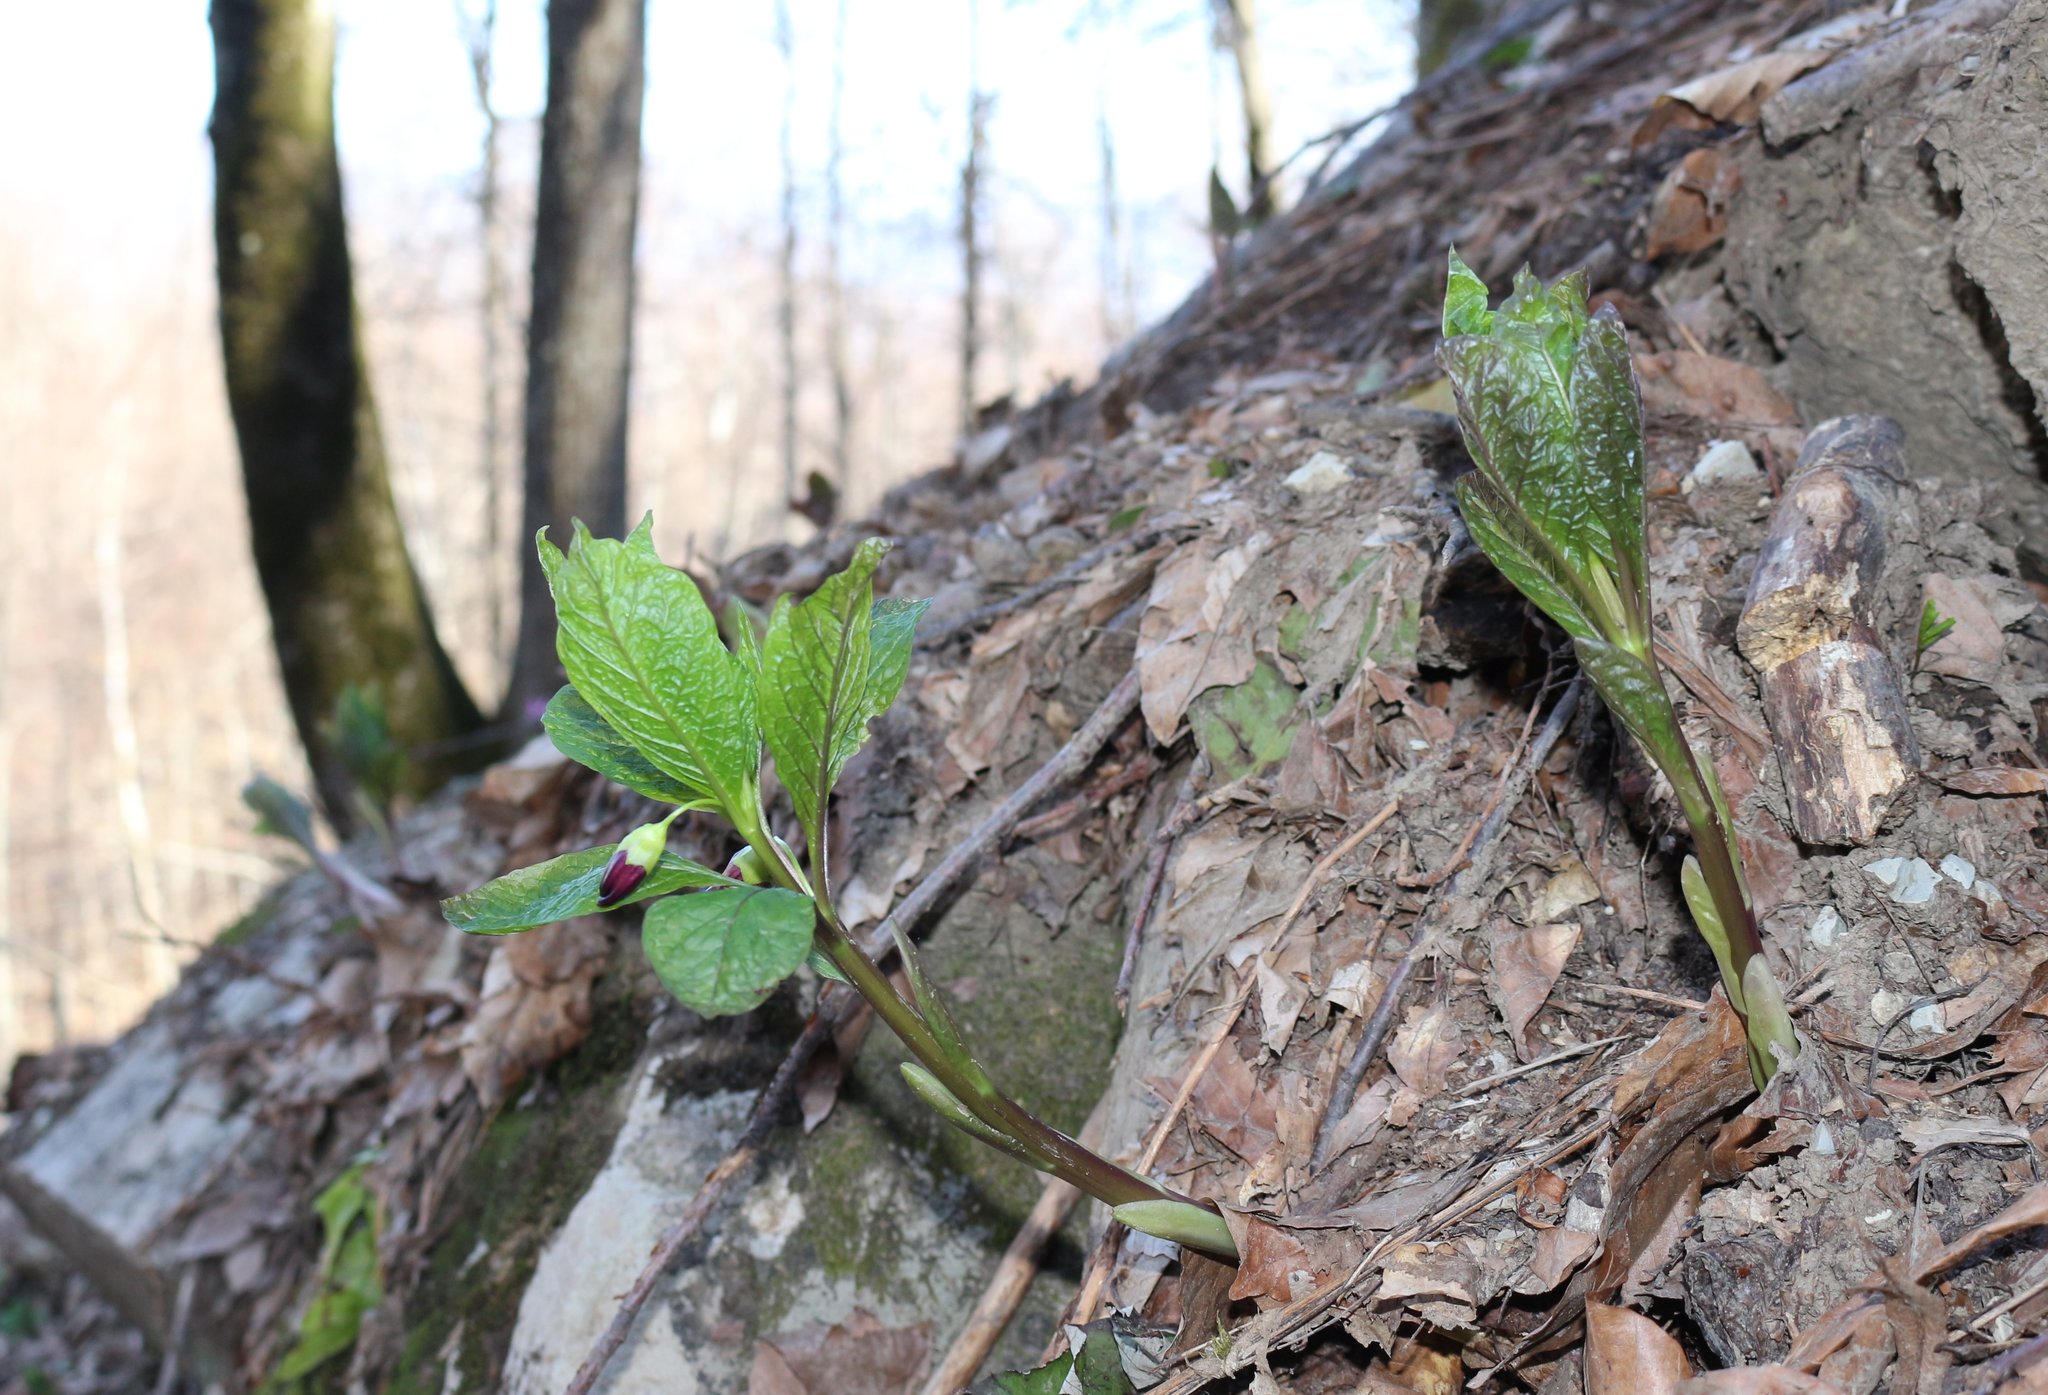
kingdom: Plantae
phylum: Tracheophyta
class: Magnoliopsida
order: Solanales
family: Solanaceae
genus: Scopolia
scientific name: Scopolia carniolica
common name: Scopolia
